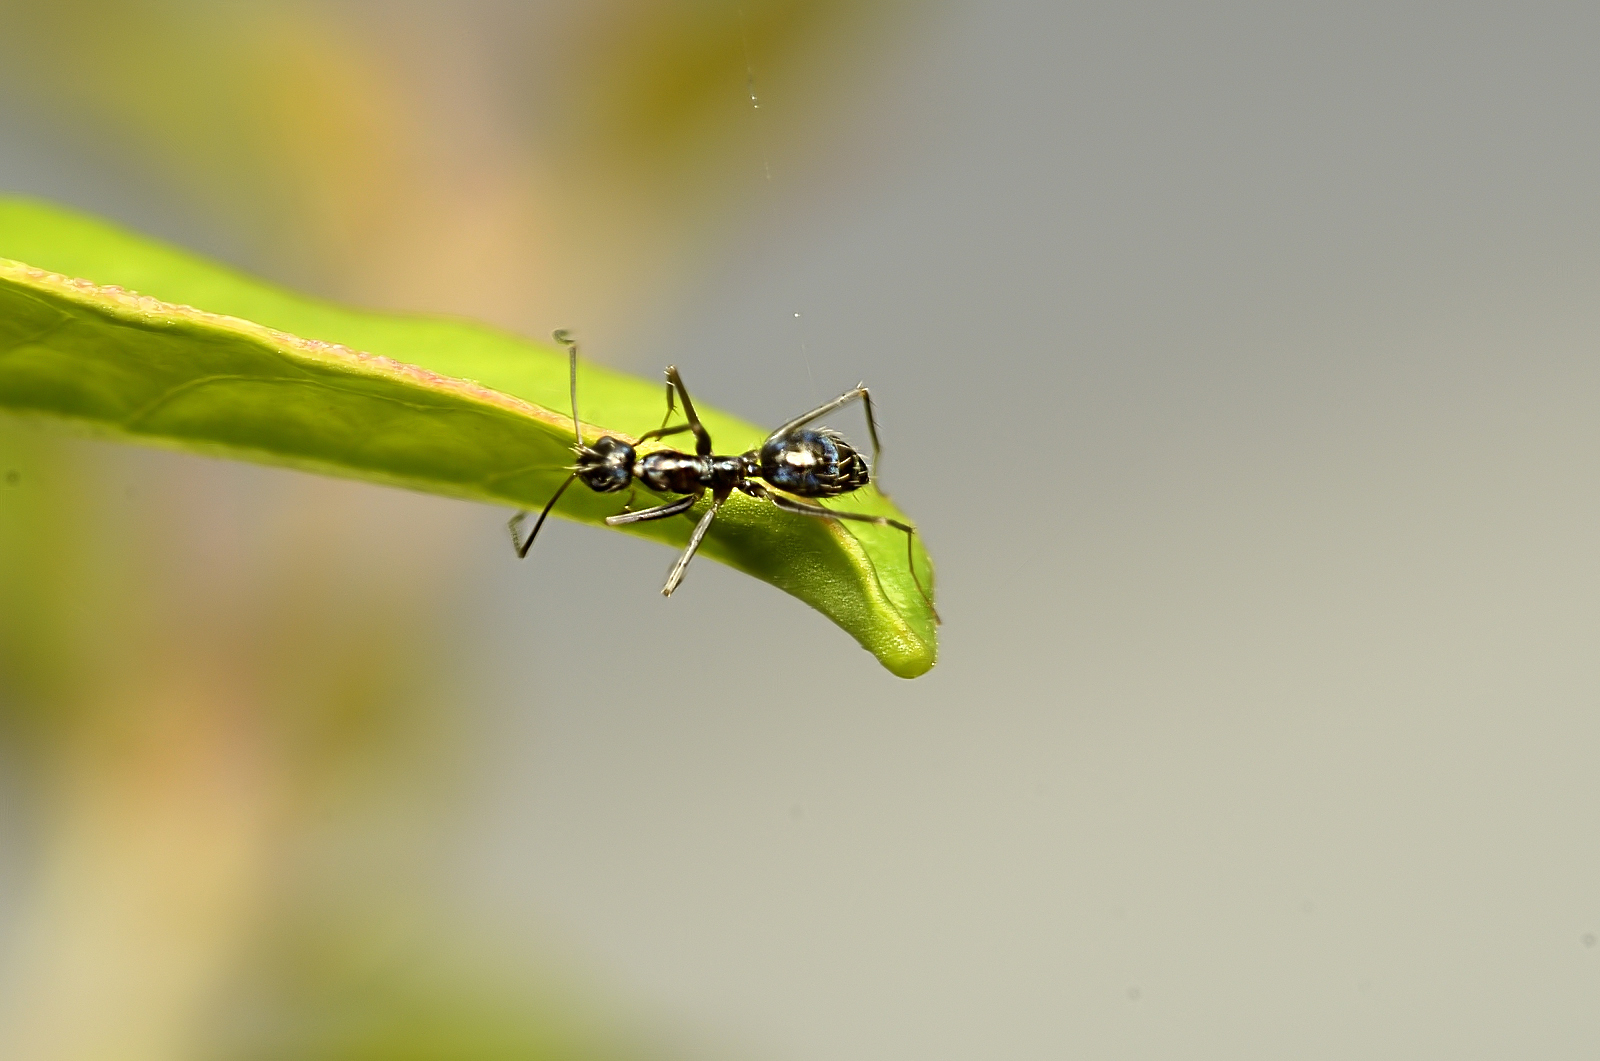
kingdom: Animalia
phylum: Arthropoda
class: Insecta
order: Hymenoptera
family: Formicidae
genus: Paratrechina
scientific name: Paratrechina longicornis
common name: Longhorned crazy ant
